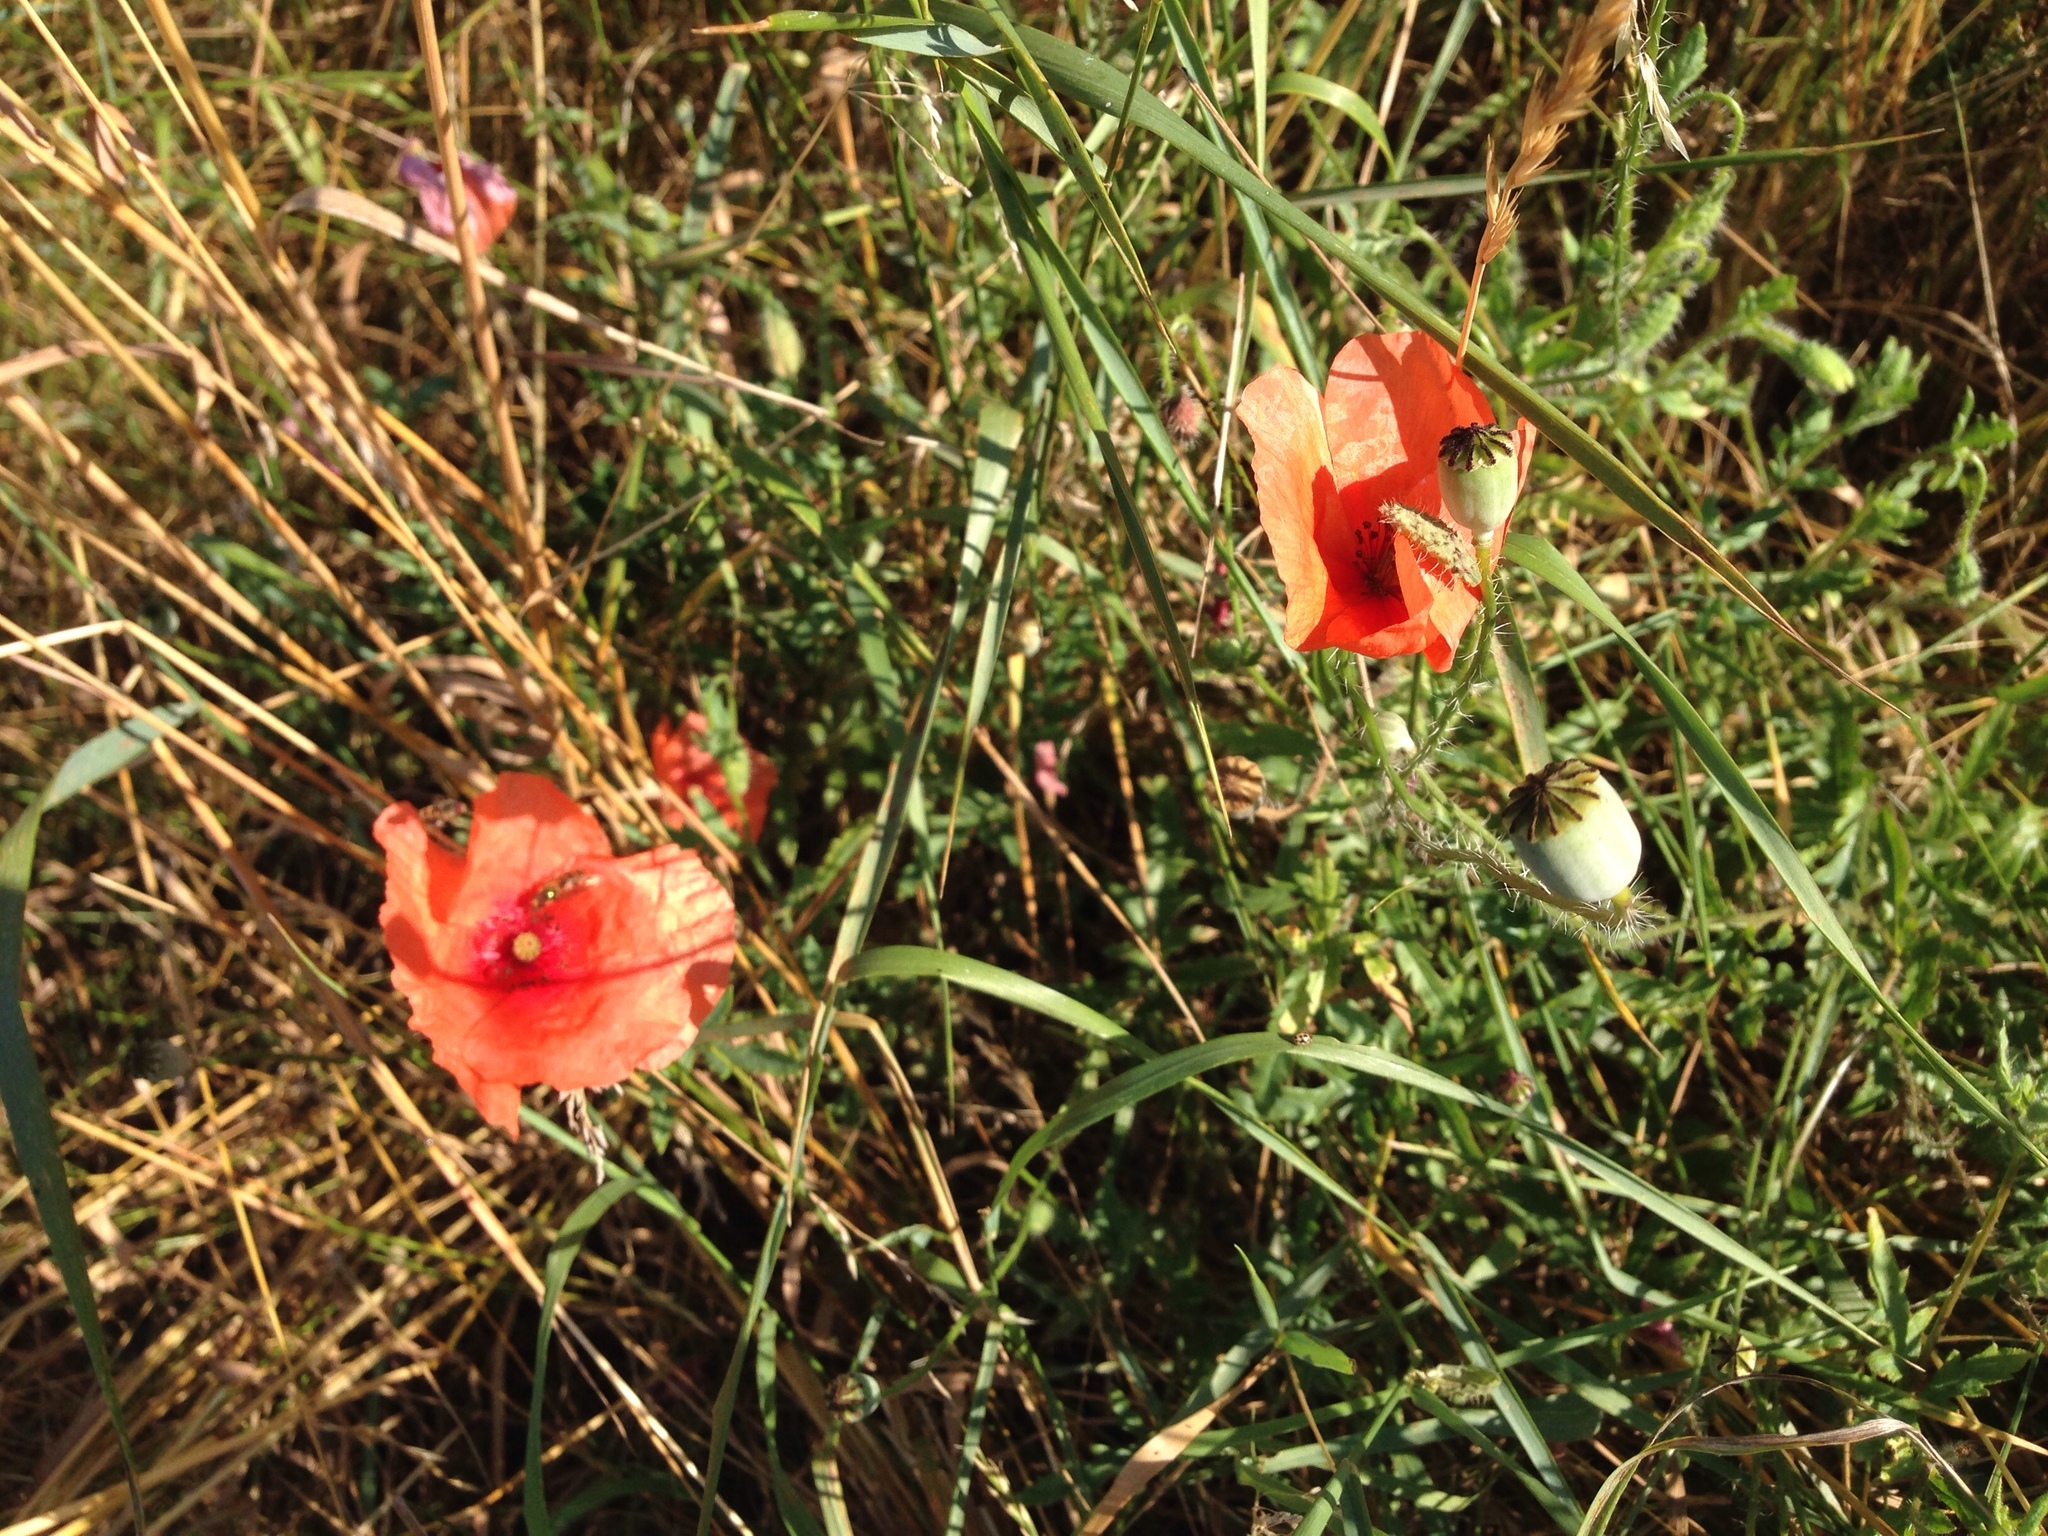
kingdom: Plantae
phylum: Tracheophyta
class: Magnoliopsida
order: Ranunculales
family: Papaveraceae
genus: Papaver
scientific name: Papaver rhoeas
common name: Corn poppy
